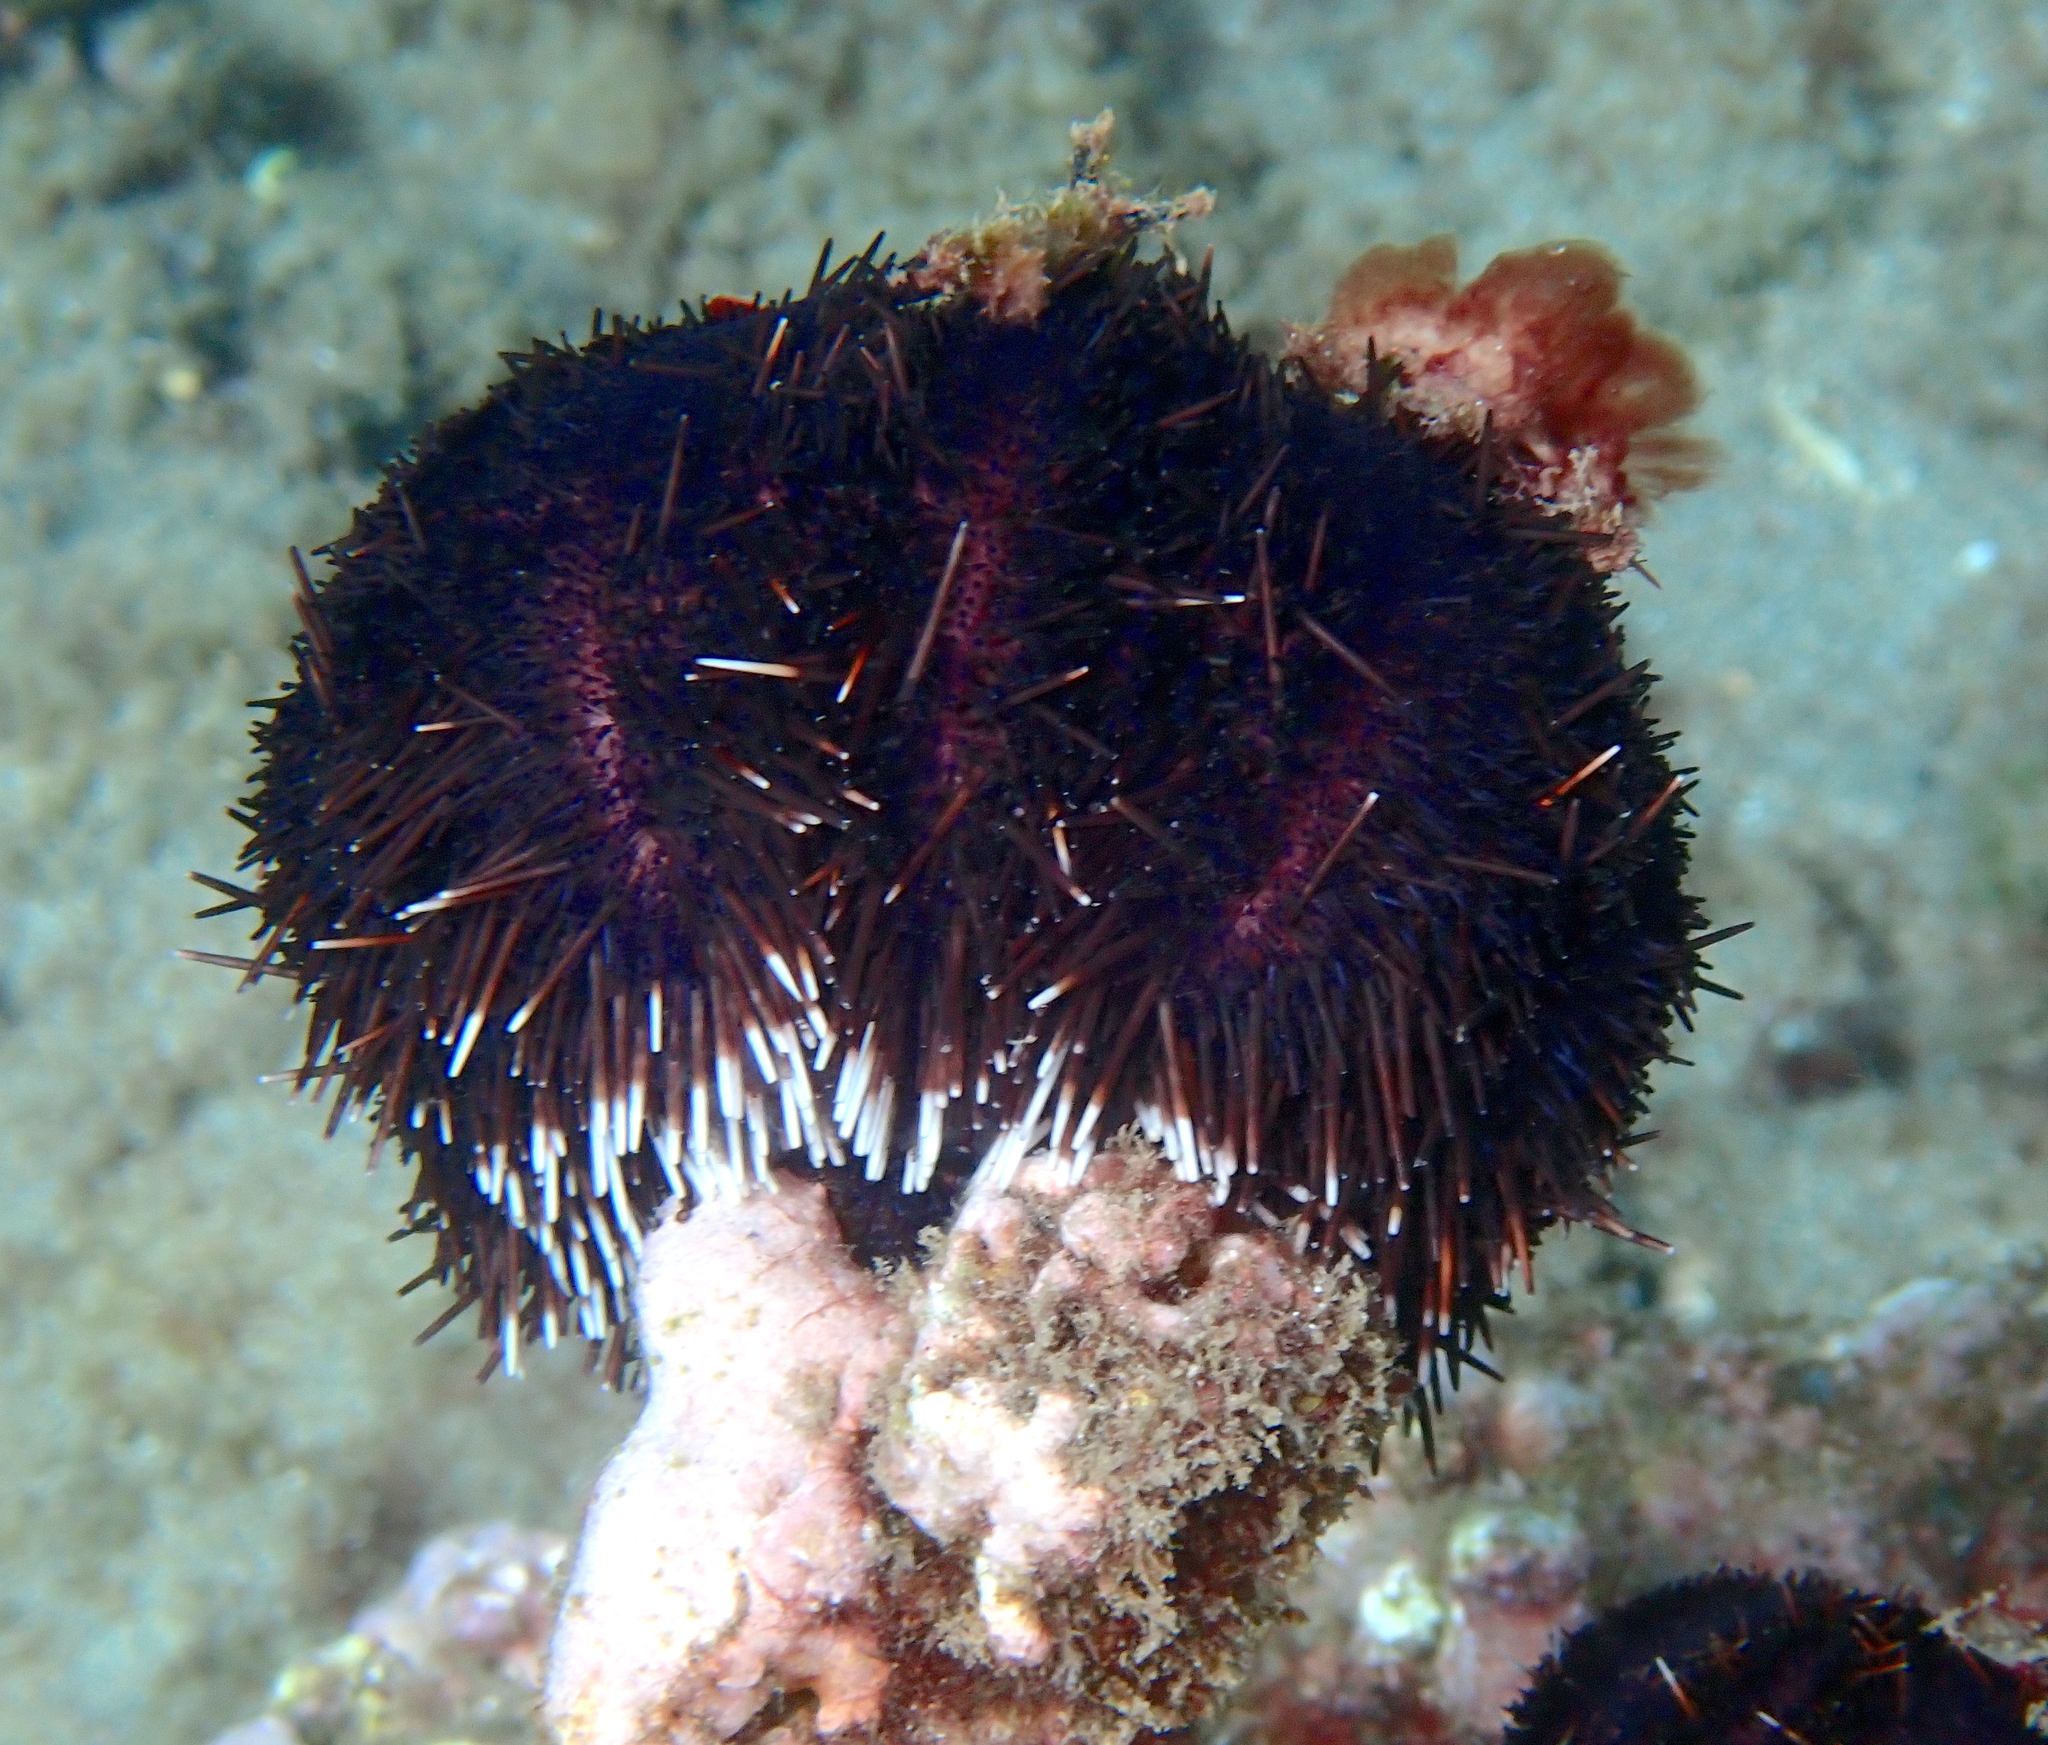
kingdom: Animalia
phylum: Echinodermata
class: Echinoidea
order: Camarodonta
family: Toxopneustidae
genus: Tripneustes
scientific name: Tripneustes gratilla
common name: Bischofsmützenseeigel
